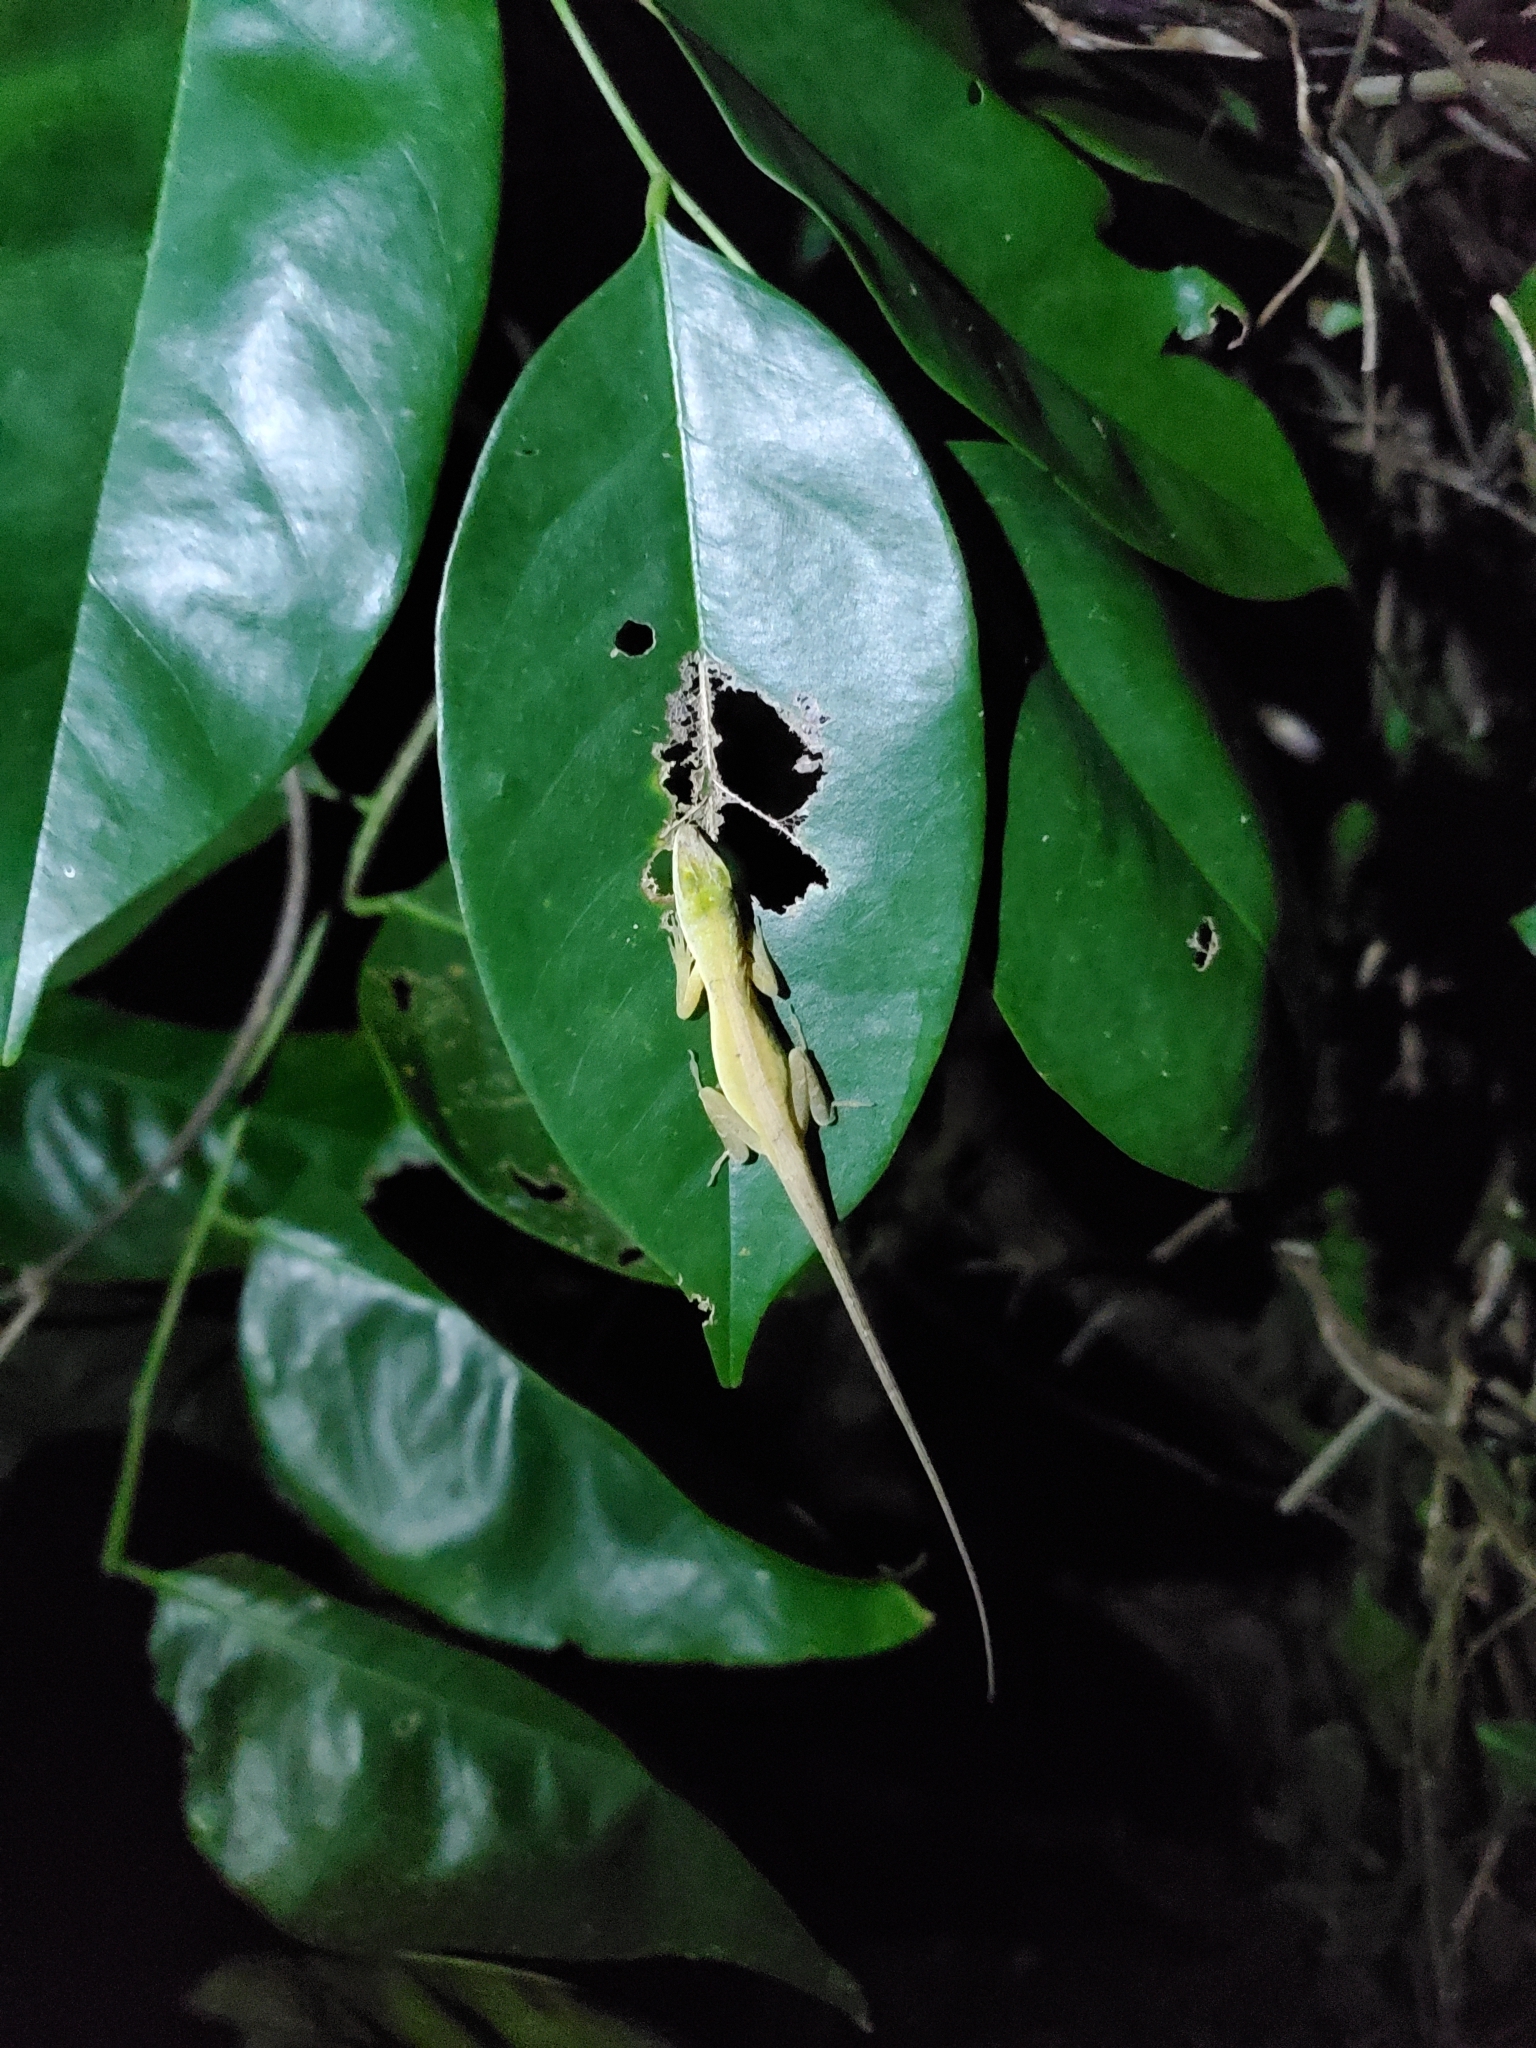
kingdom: Animalia
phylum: Chordata
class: Squamata
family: Dactyloidae
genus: Anolis
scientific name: Anolis evermanni
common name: Emerald anole
